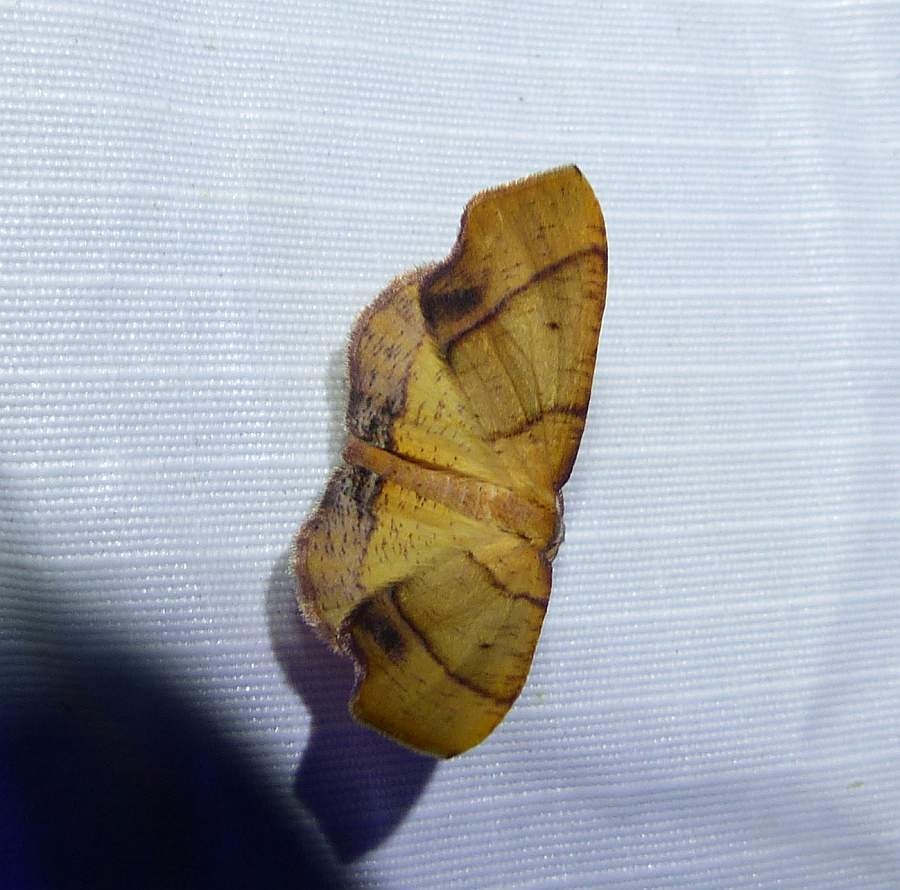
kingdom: Animalia
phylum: Arthropoda
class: Insecta
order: Lepidoptera
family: Geometridae
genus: Plagodis
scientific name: Plagodis phlogosaria
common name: Straight-lined plagodis
